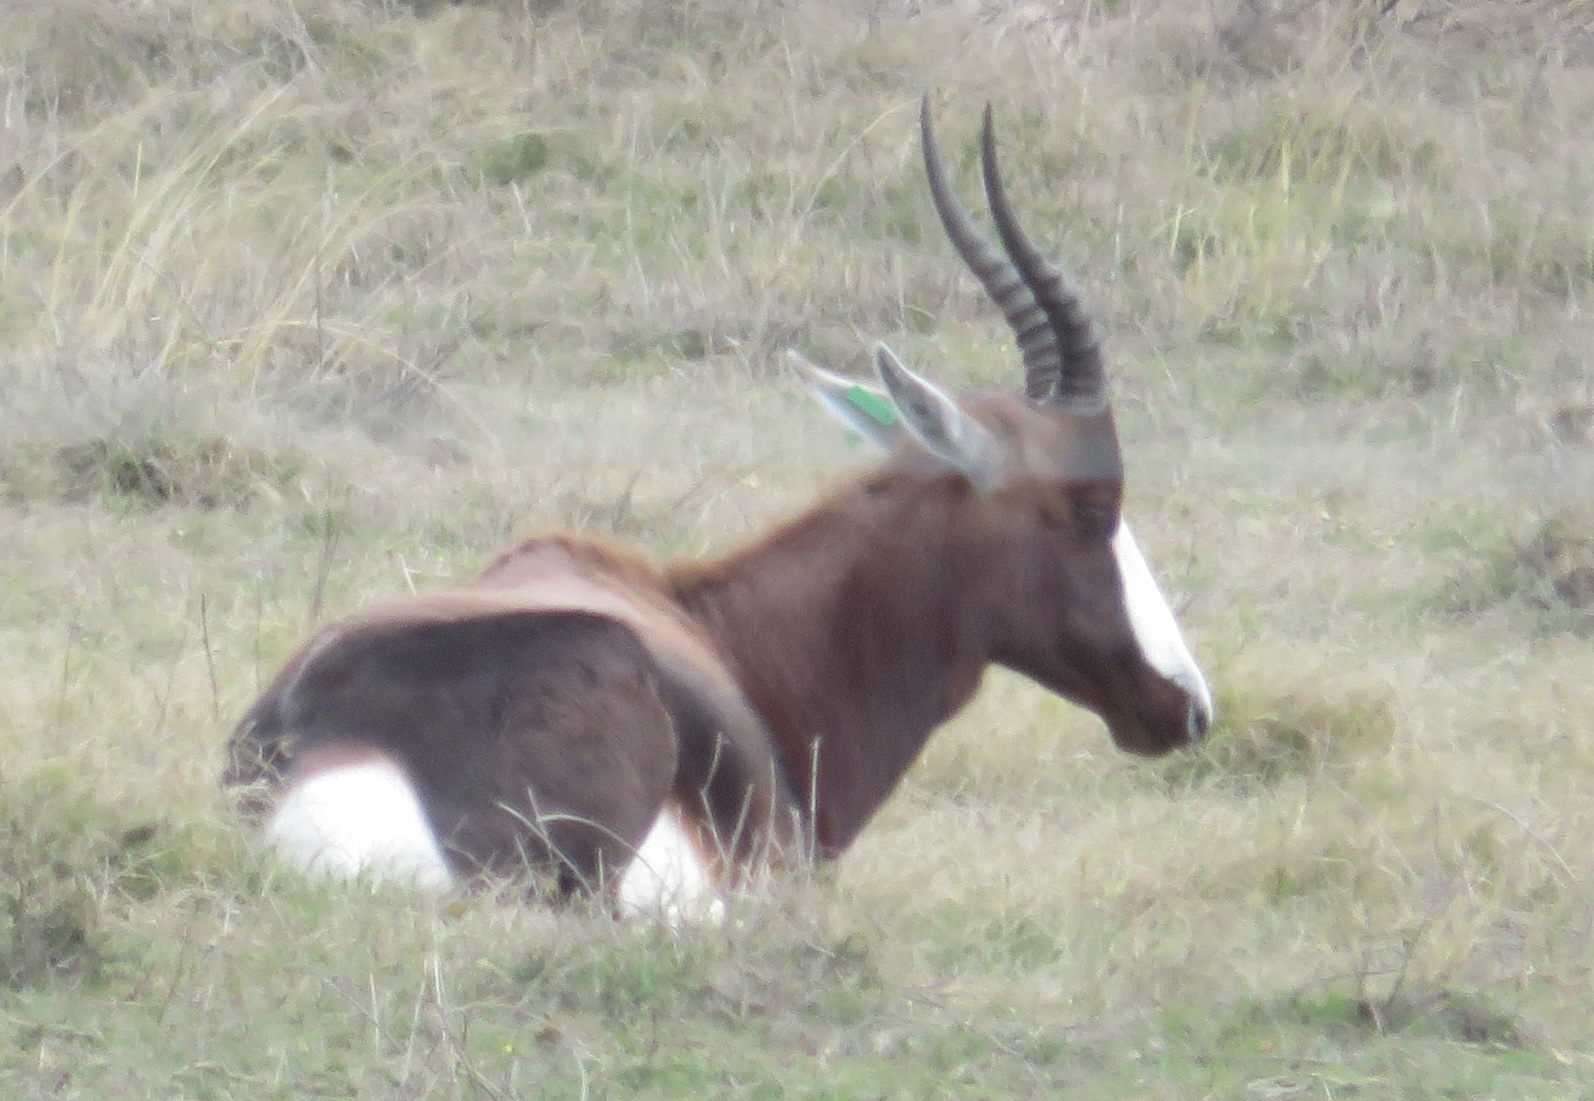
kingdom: Animalia
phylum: Chordata
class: Mammalia
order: Artiodactyla
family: Bovidae
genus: Damaliscus
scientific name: Damaliscus pygargus
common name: Bontebok
